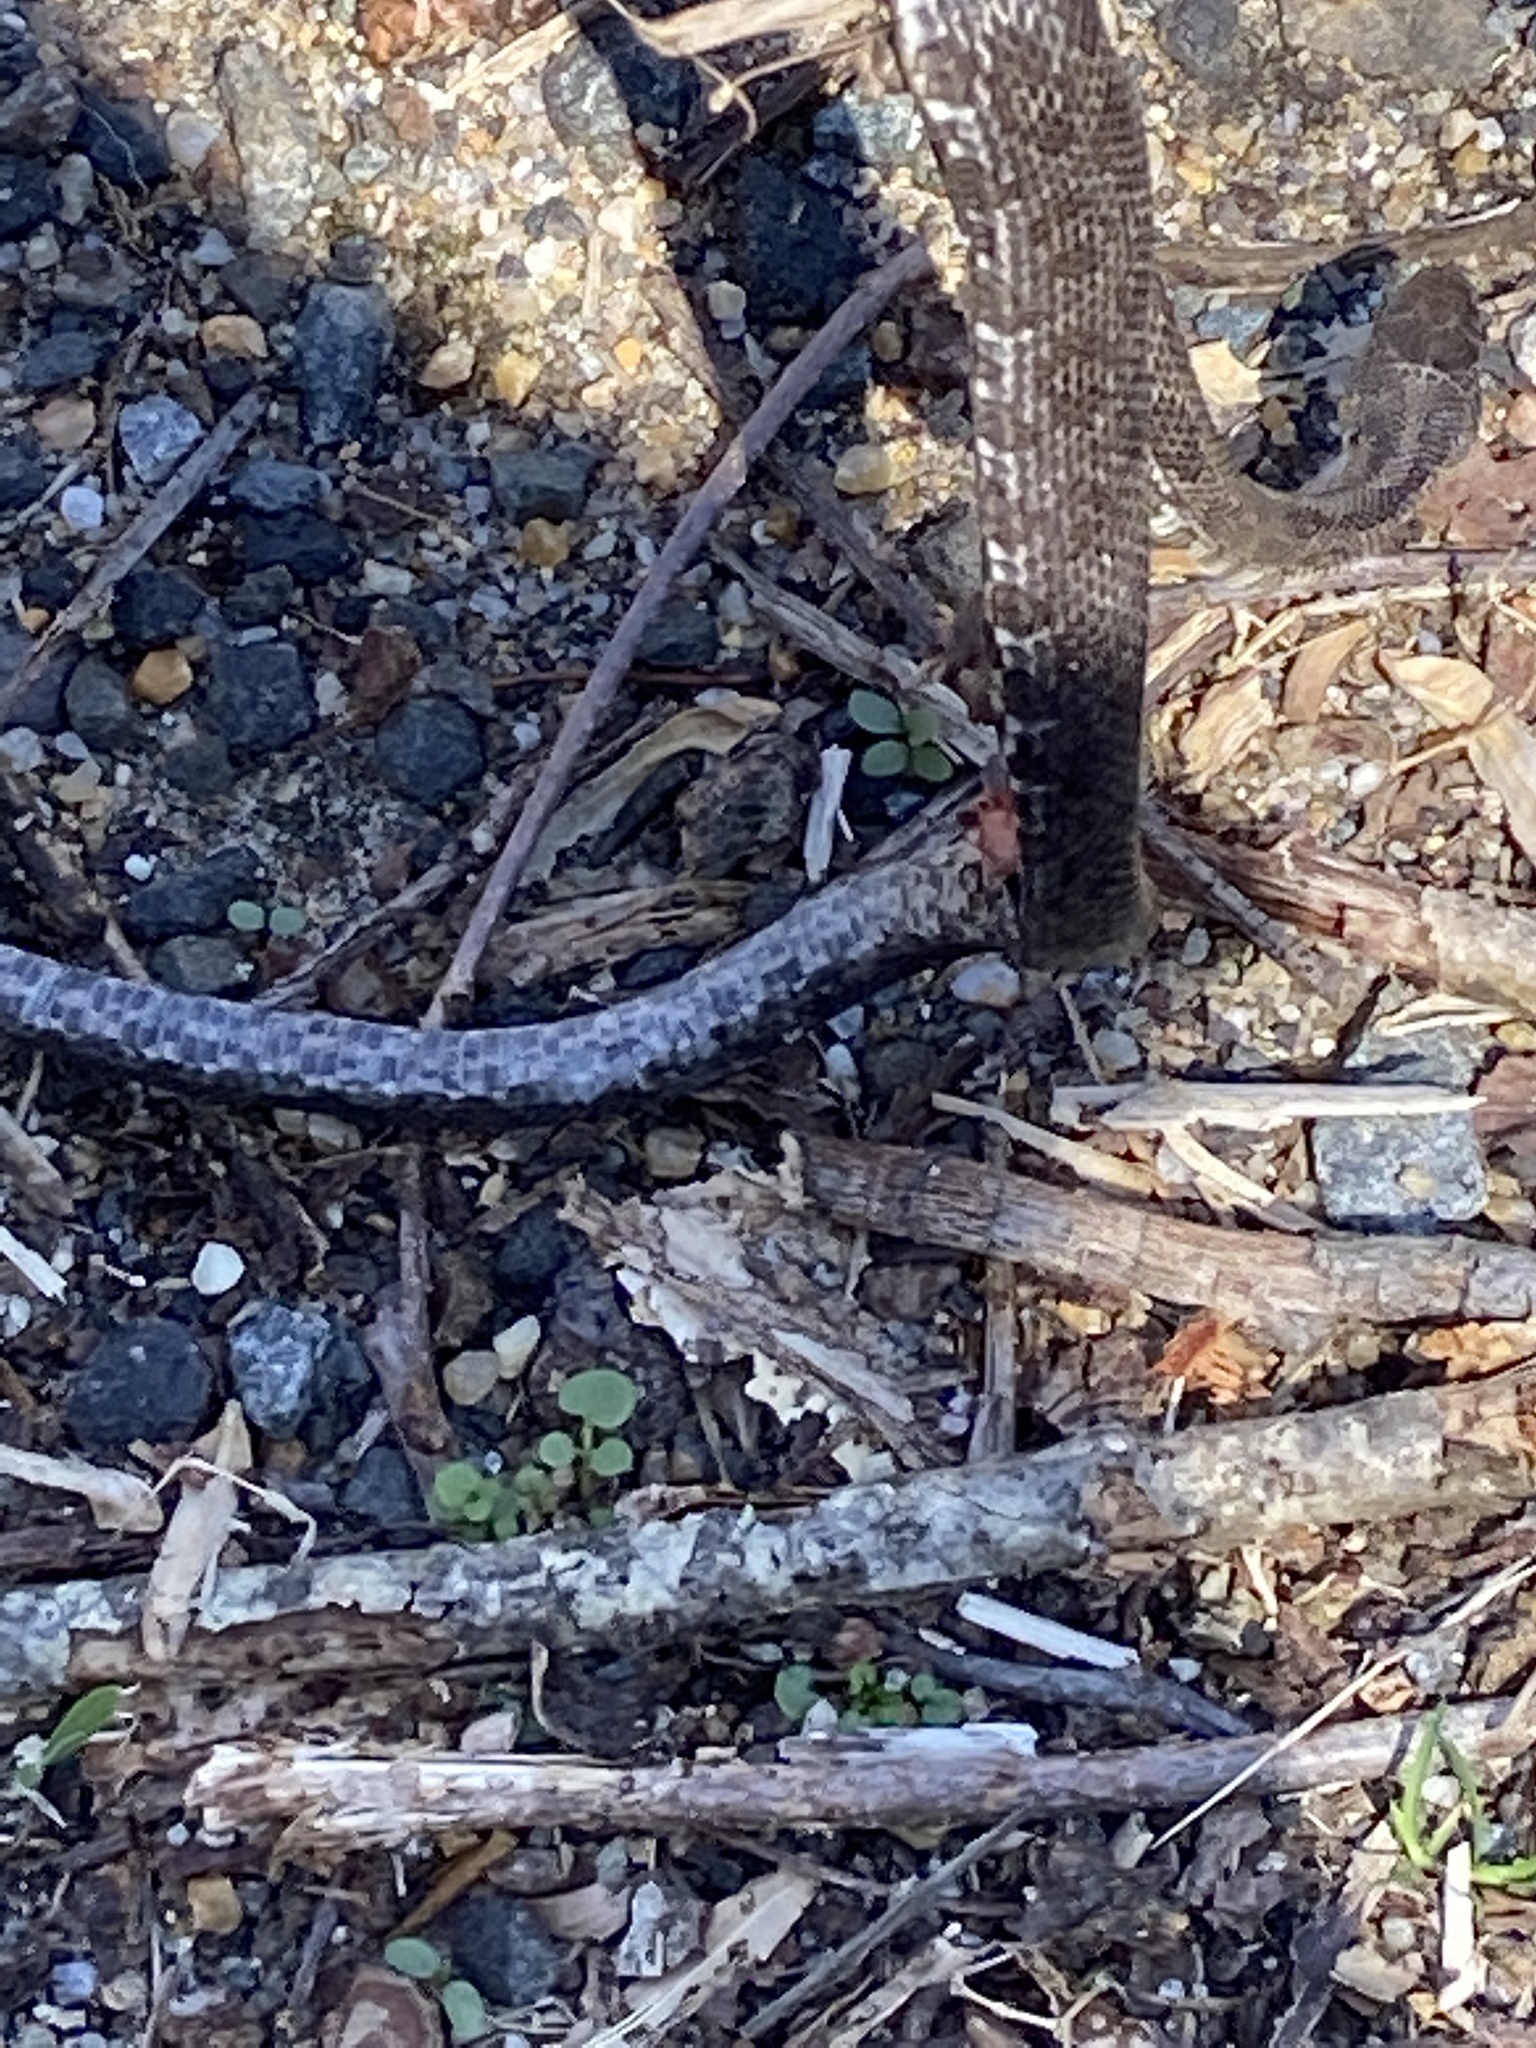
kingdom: Animalia
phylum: Chordata
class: Squamata
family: Colubridae
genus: Pantherophis
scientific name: Pantherophis alleghaniensis
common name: Eastern rat snake
